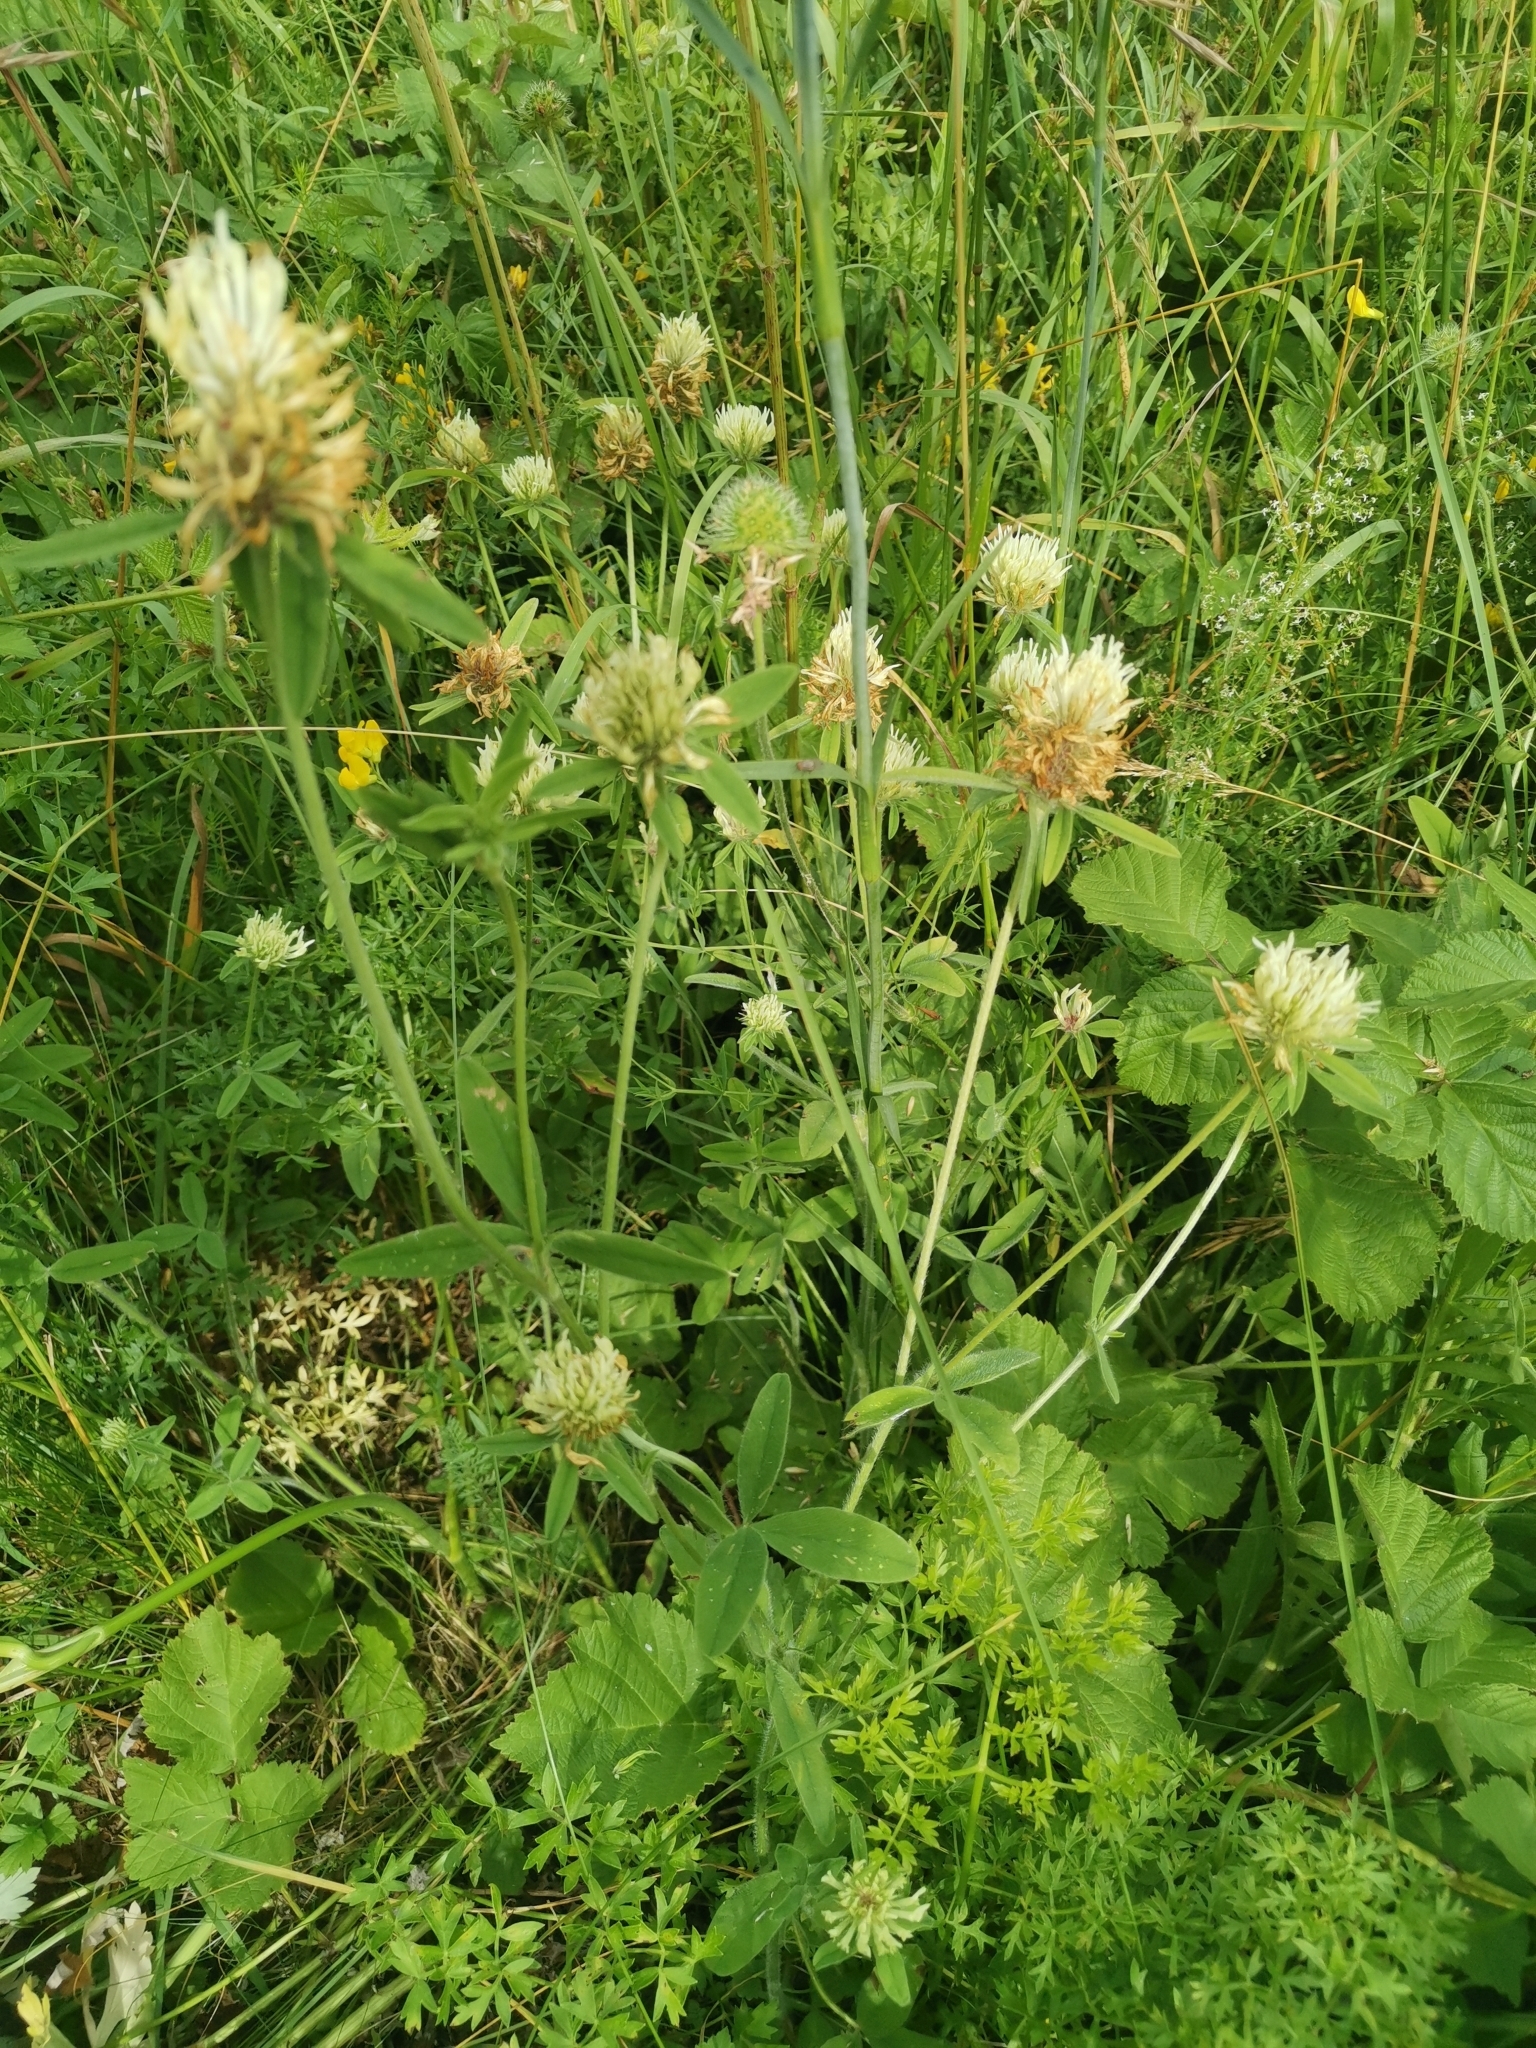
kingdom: Plantae
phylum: Tracheophyta
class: Magnoliopsida
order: Fabales
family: Fabaceae
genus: Trifolium
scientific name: Trifolium ochroleucon
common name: Sulphur clover
